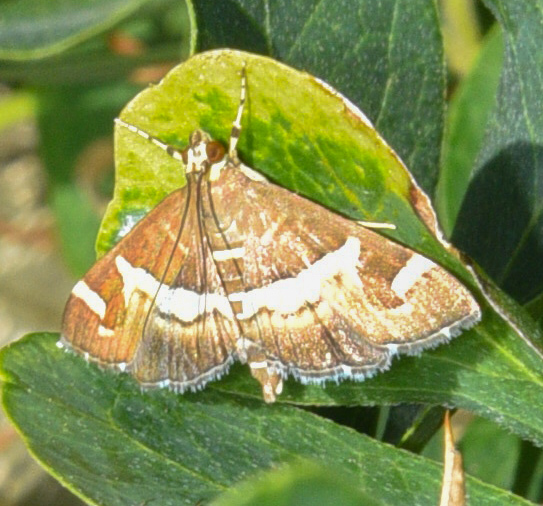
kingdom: Animalia
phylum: Arthropoda
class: Insecta
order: Lepidoptera
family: Crambidae
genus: Spoladea
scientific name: Spoladea recurvalis
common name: Beet webworm moth
